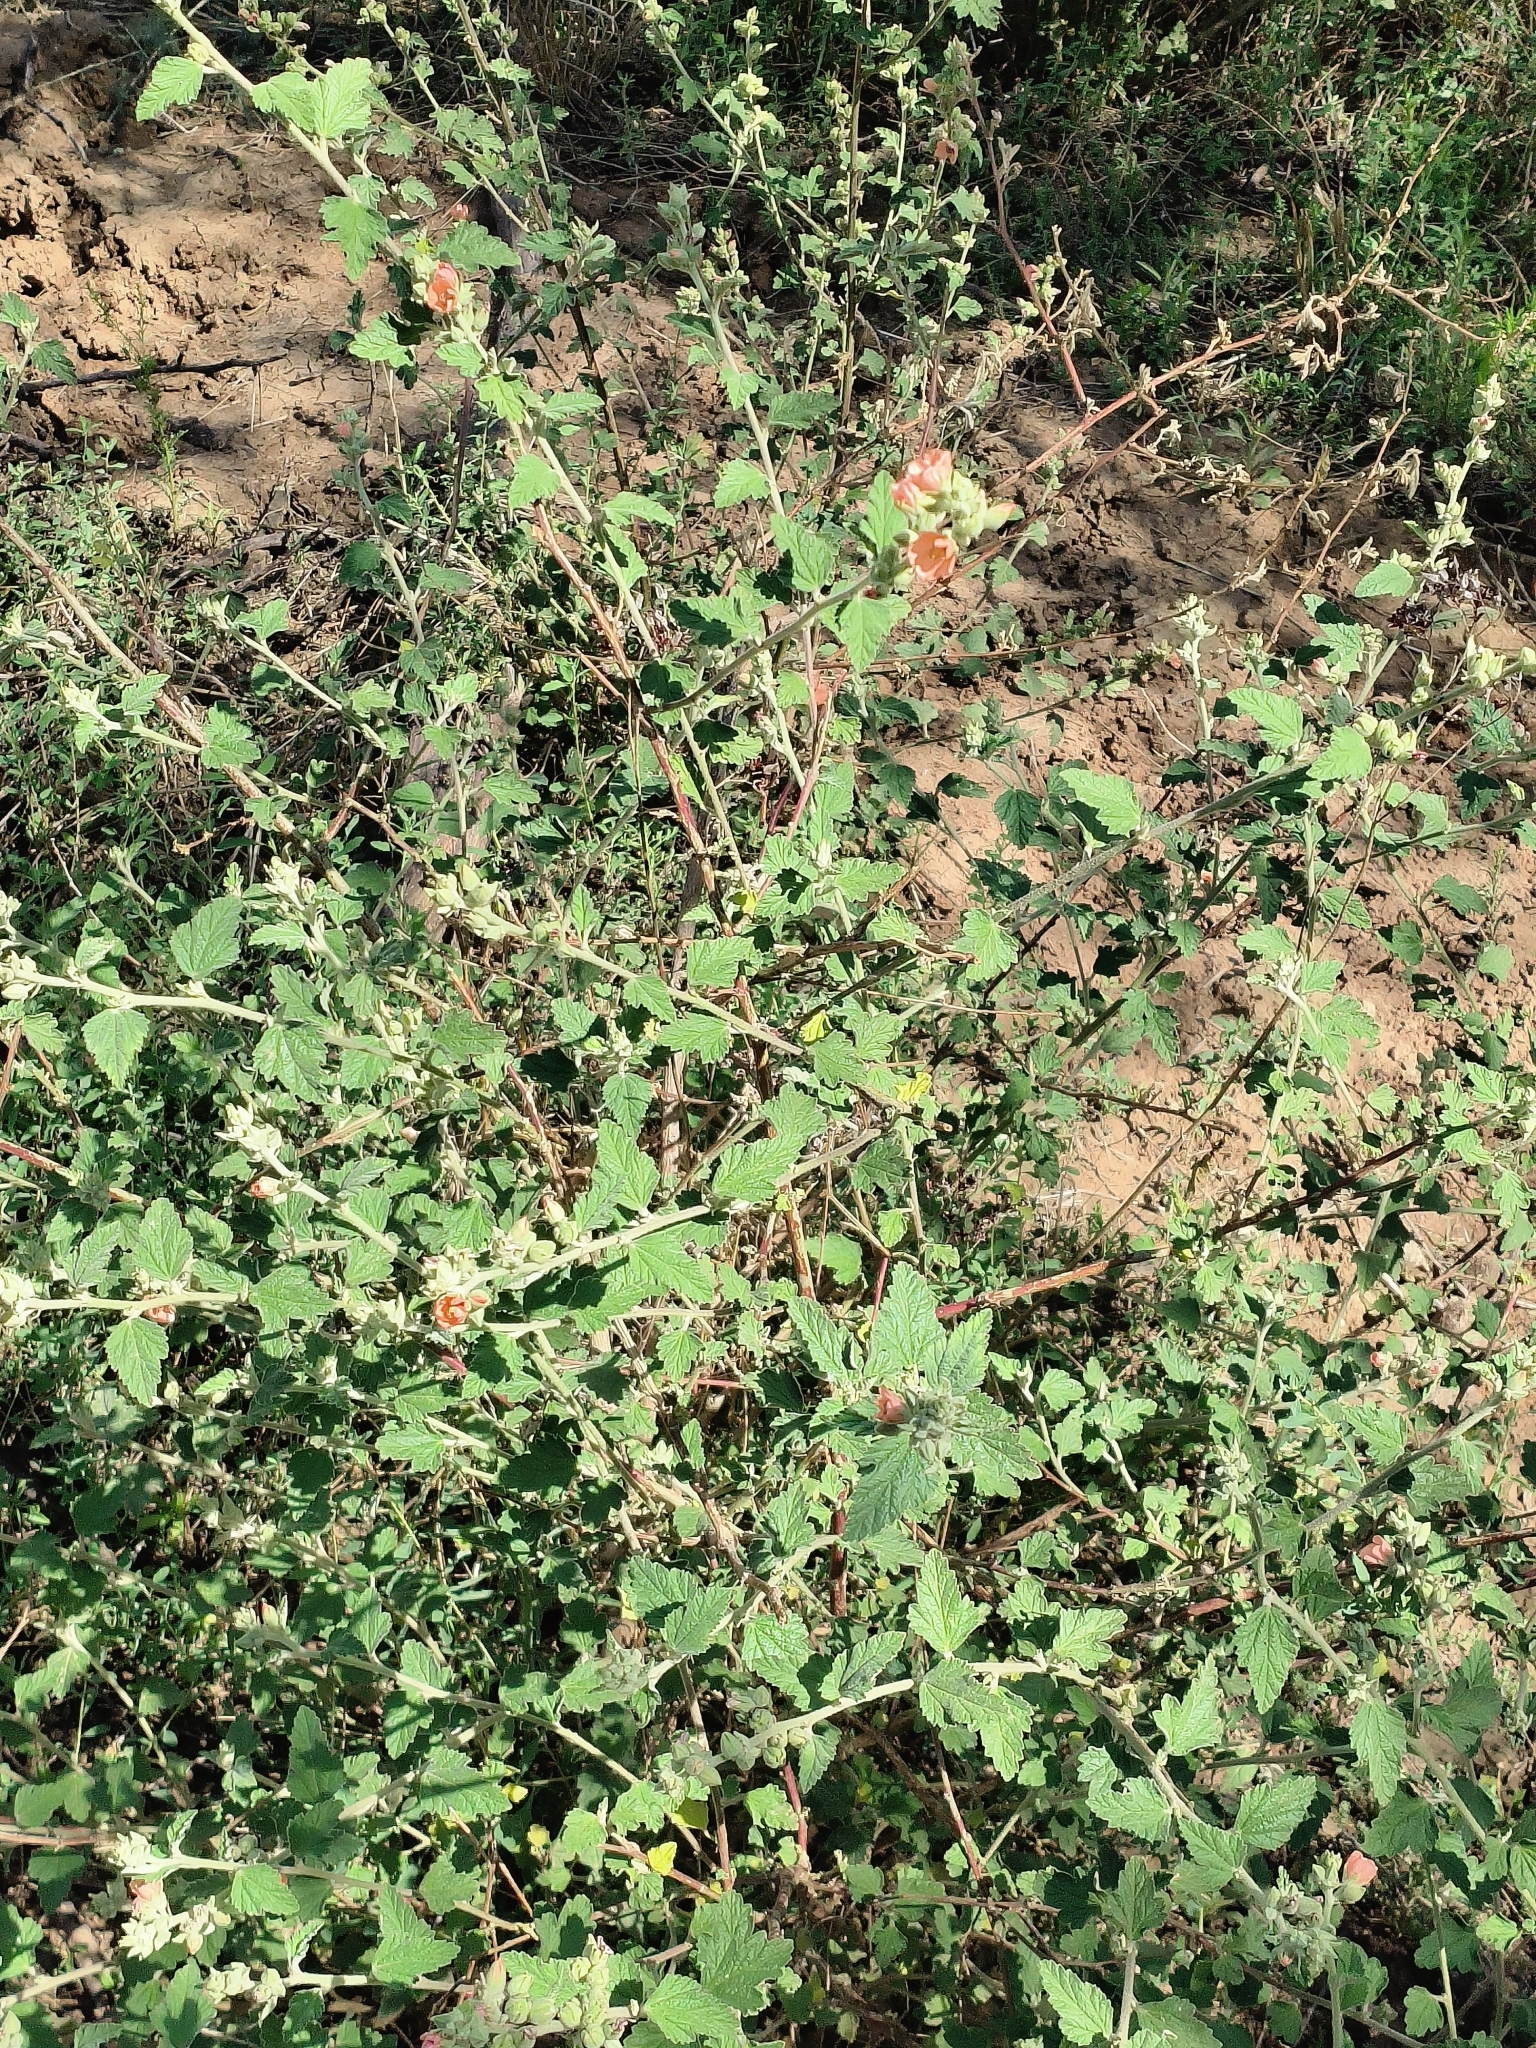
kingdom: Plantae
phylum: Tracheophyta
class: Magnoliopsida
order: Malvales
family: Malvaceae
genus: Sphaeralcea
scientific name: Sphaeralcea bonariensis
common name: Latin globemallow
